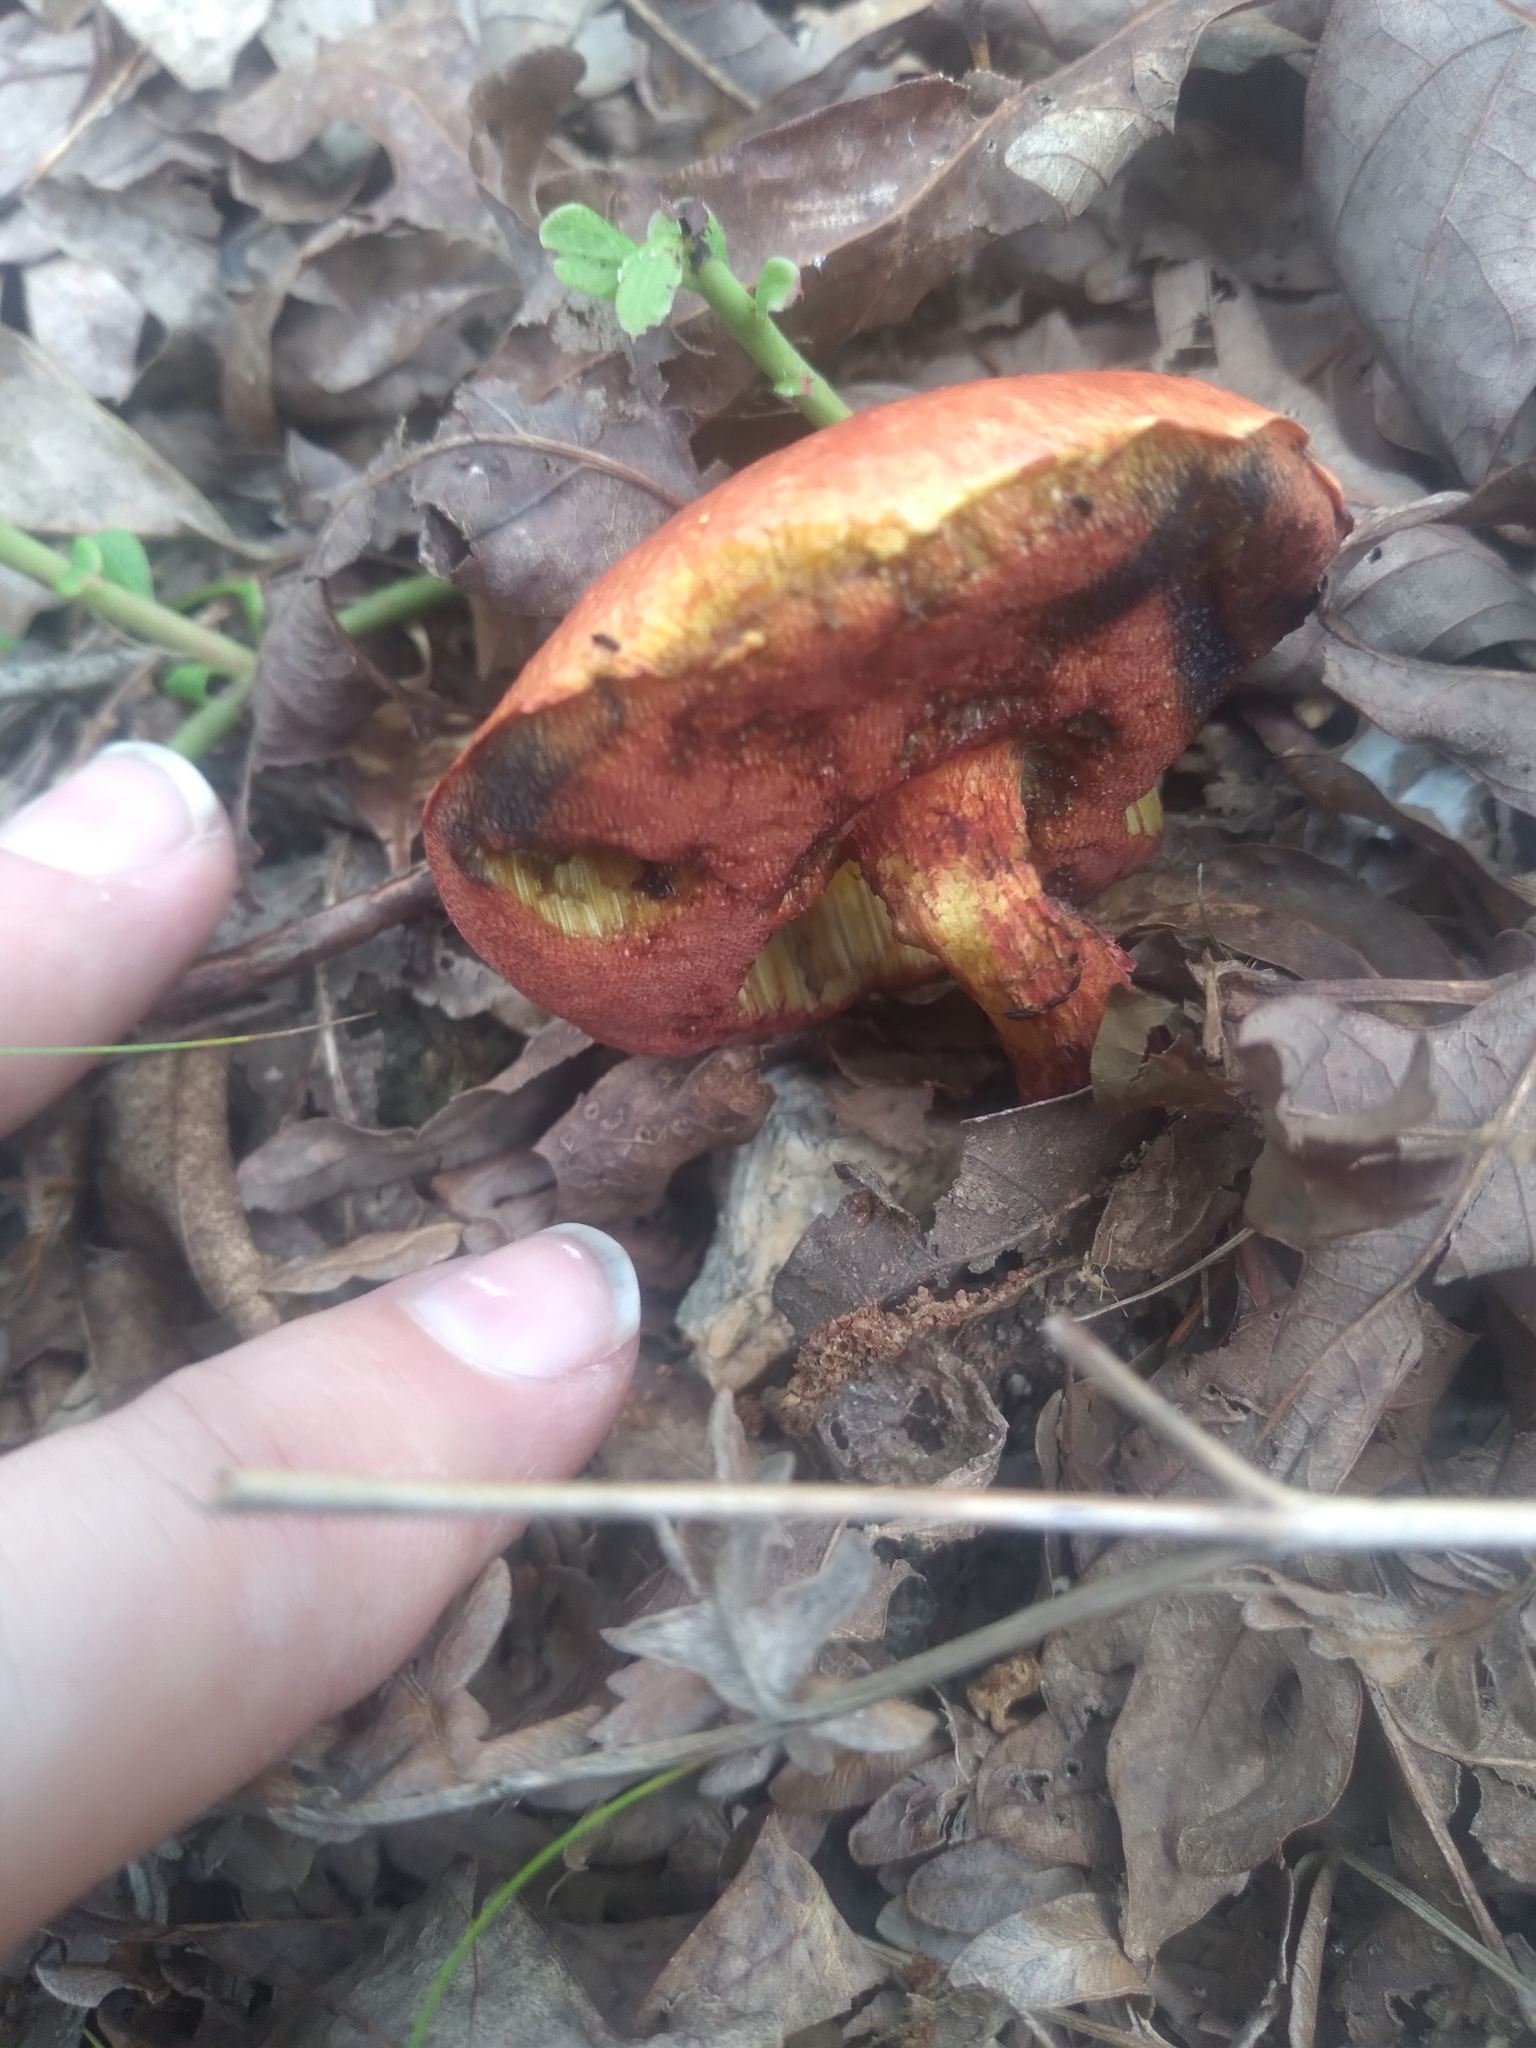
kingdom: Fungi
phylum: Basidiomycota
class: Agaricomycetes
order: Boletales
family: Boletaceae
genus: Butyriboletus
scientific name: Butyriboletus frostii
